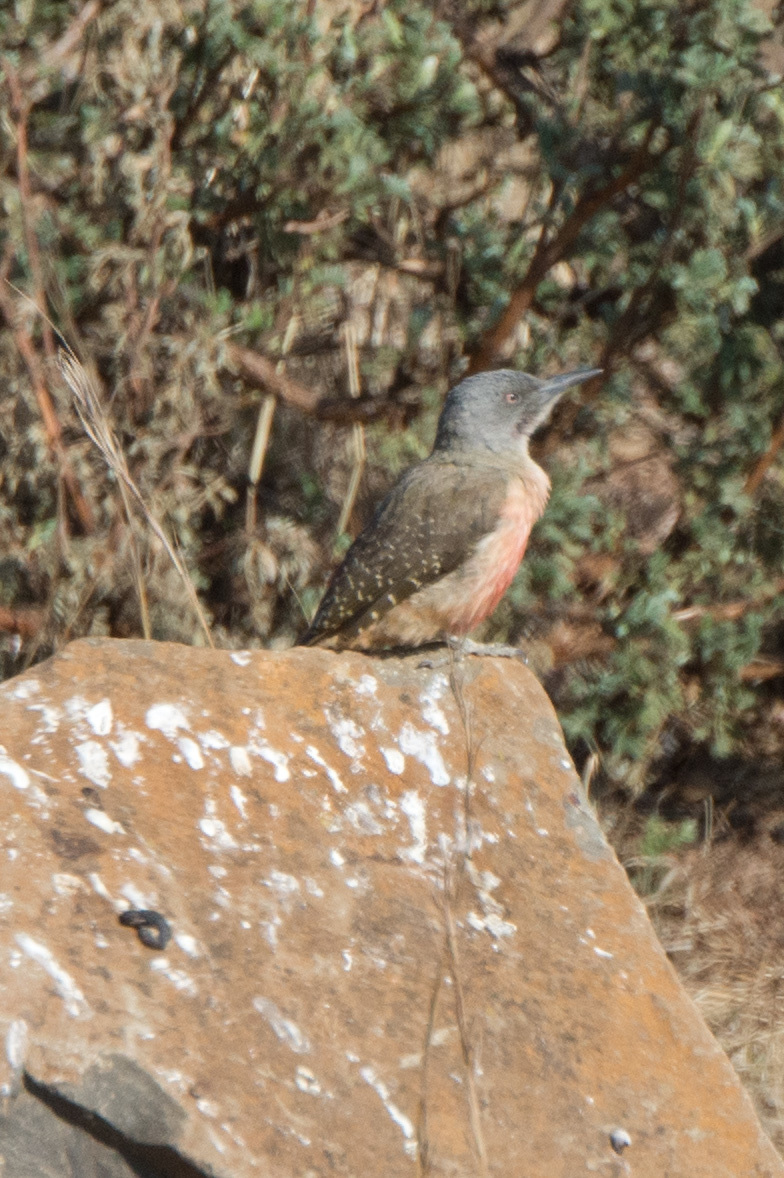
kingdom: Animalia
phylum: Chordata
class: Aves
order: Piciformes
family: Picidae
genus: Geocolaptes
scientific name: Geocolaptes olivaceus
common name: Ground woodpecker
